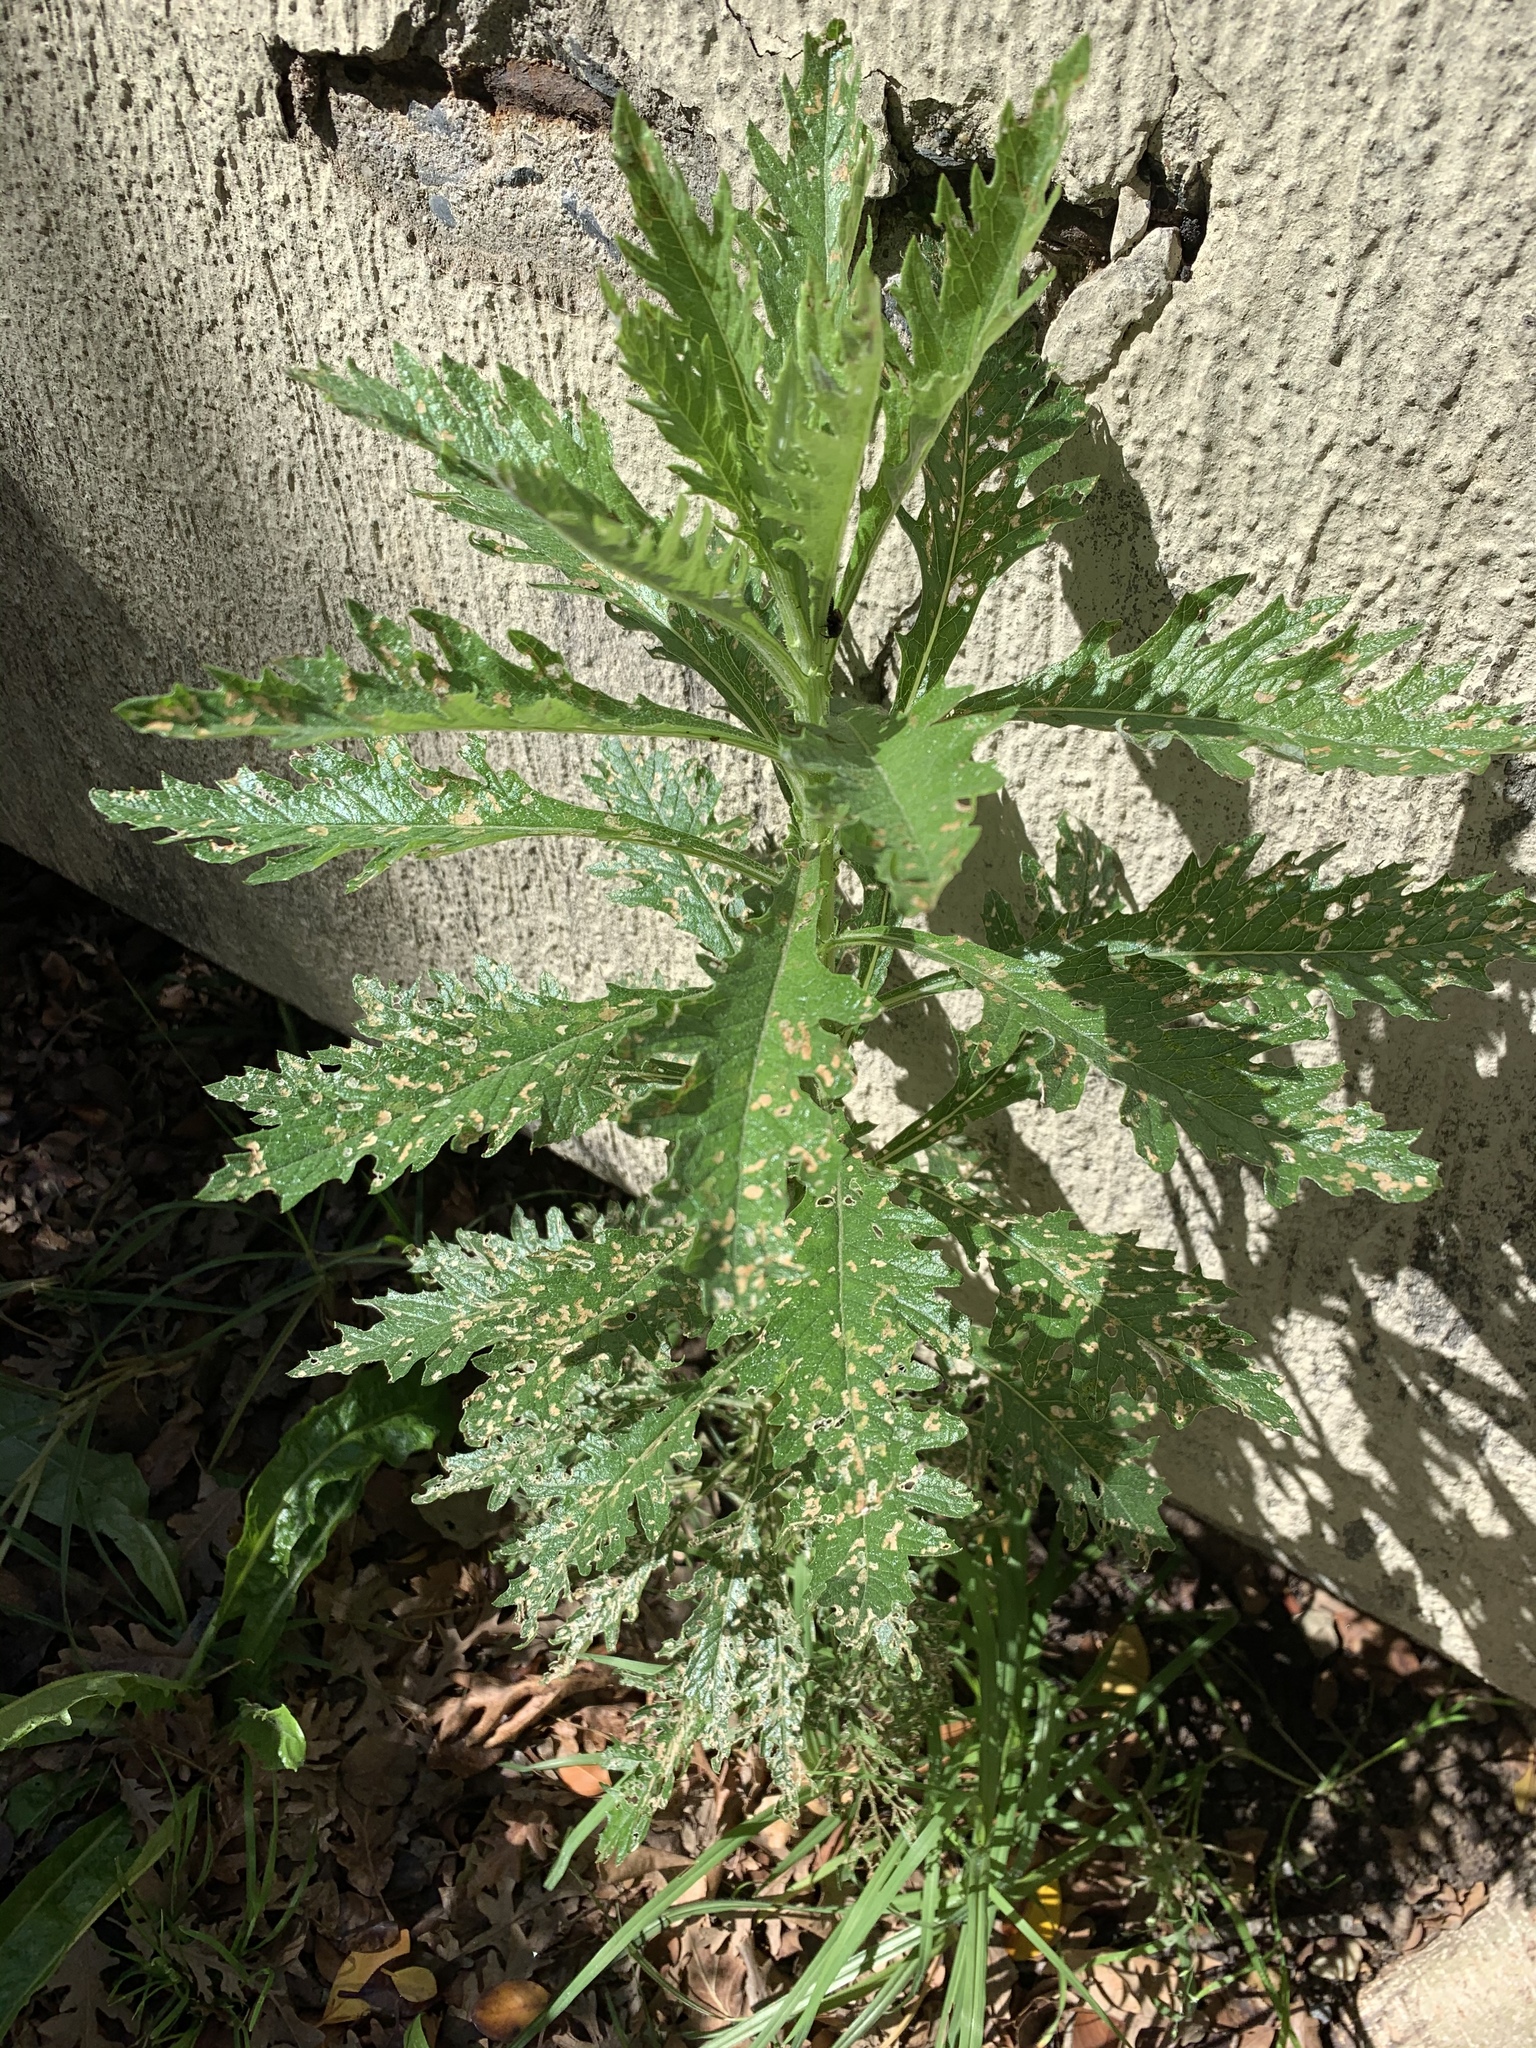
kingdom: Plantae
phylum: Tracheophyta
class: Magnoliopsida
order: Asterales
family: Asteraceae
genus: Senecio
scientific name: Senecio pterophorus
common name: Shoddy ragwort
